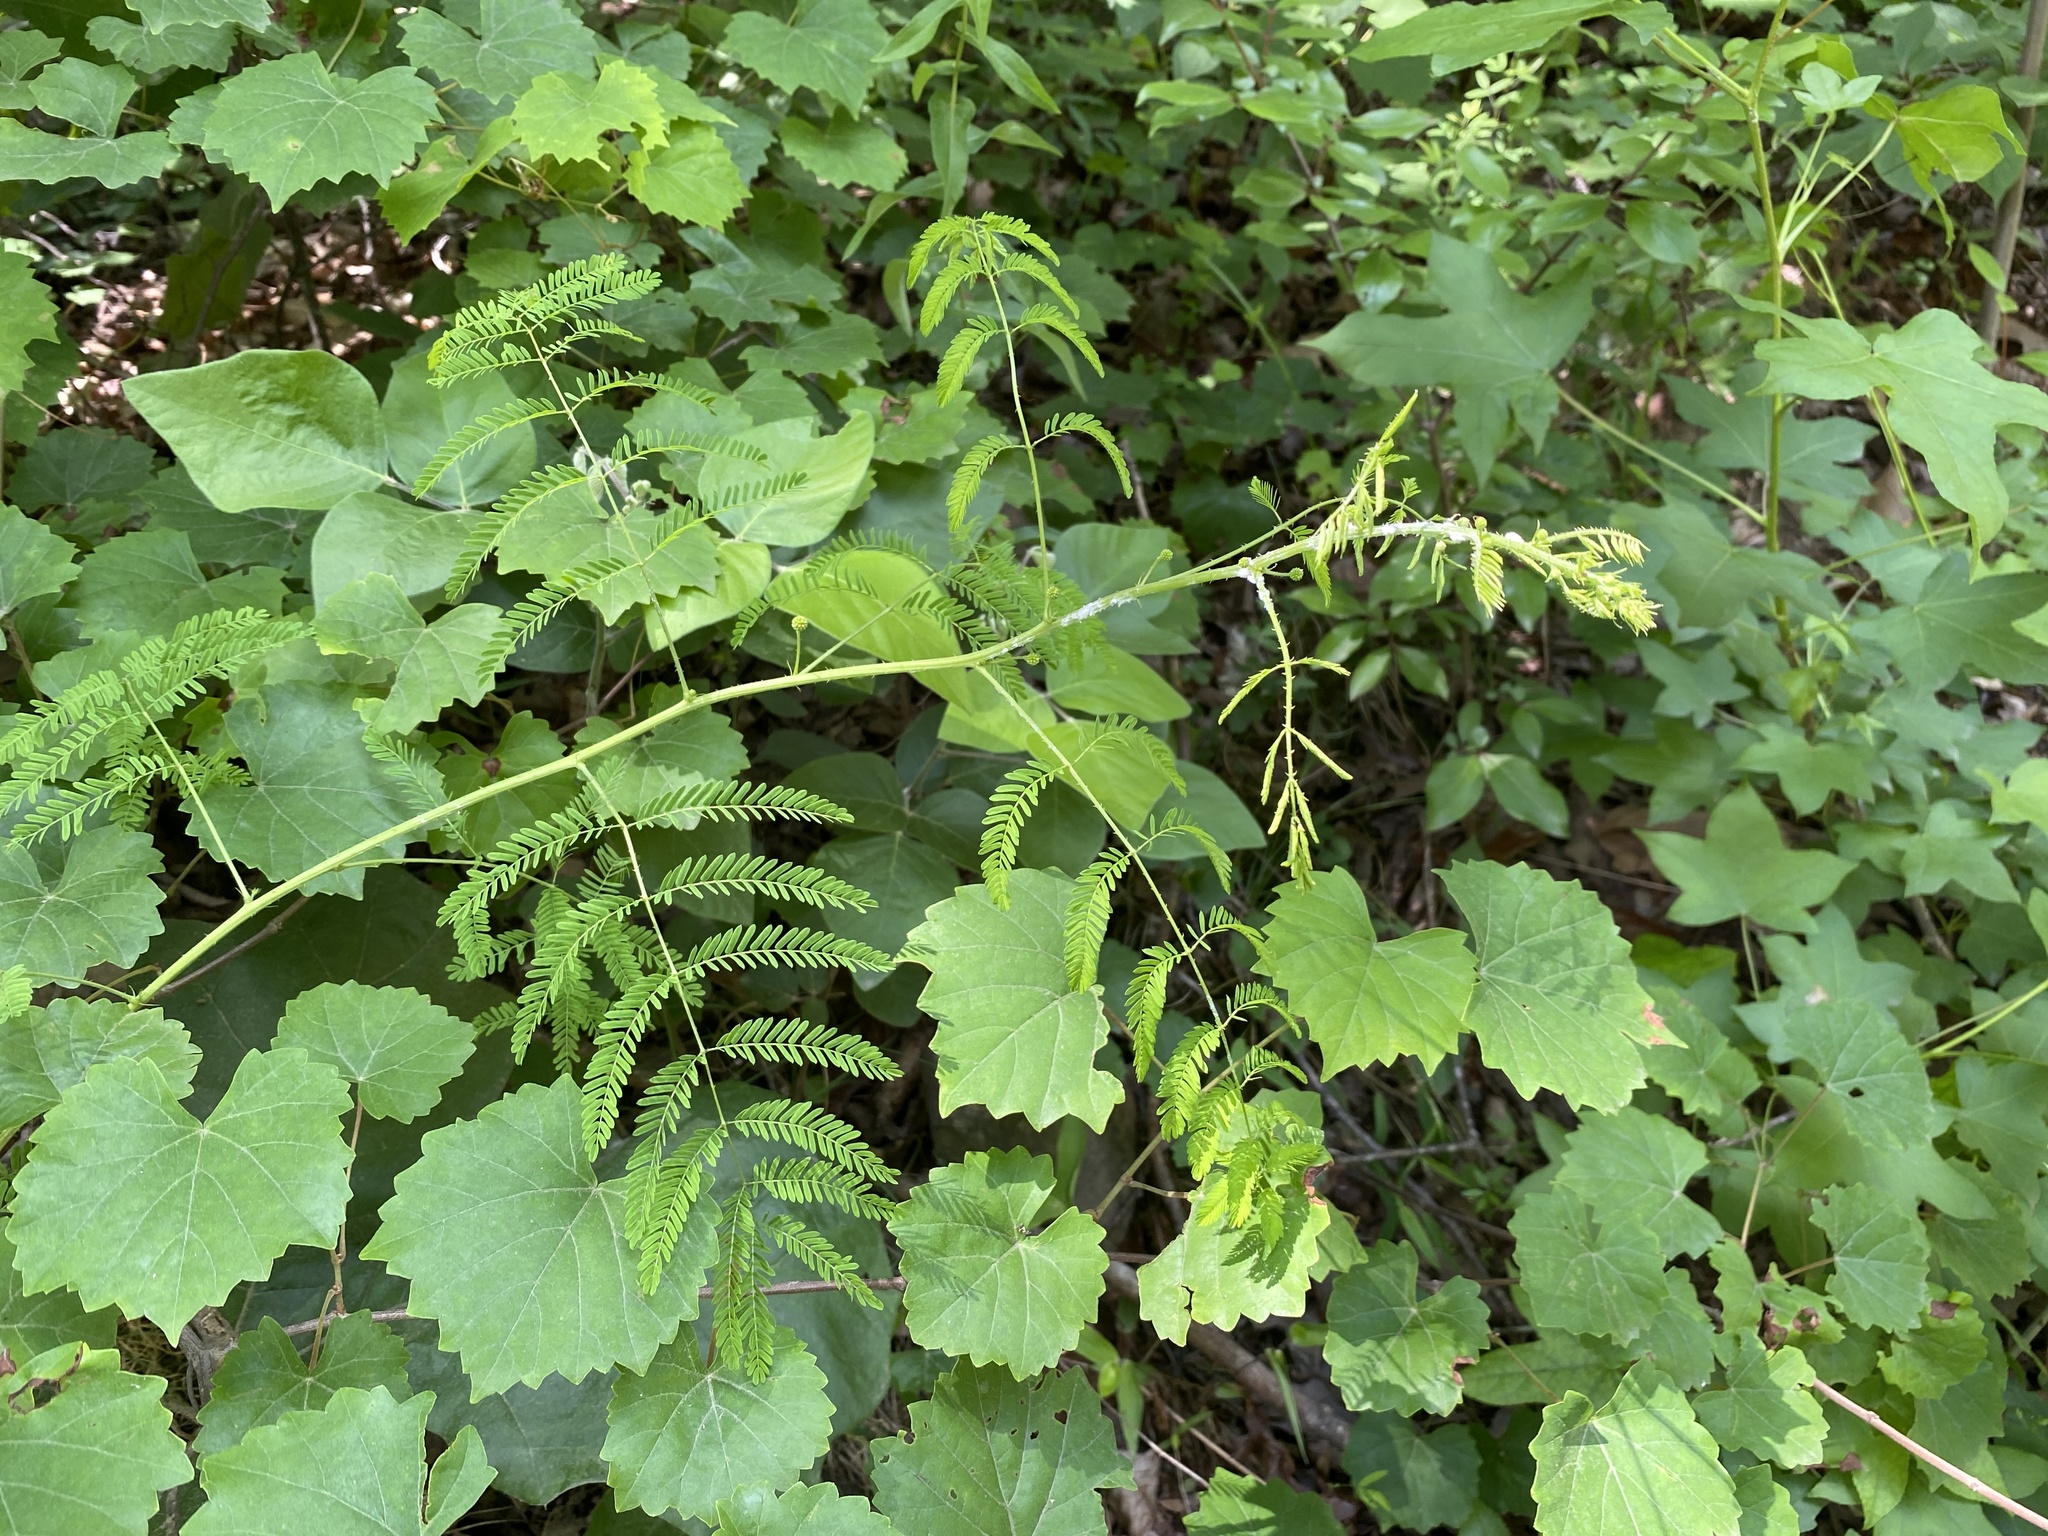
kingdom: Plantae
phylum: Tracheophyta
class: Magnoliopsida
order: Fabales
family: Fabaceae
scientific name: Fabaceae
